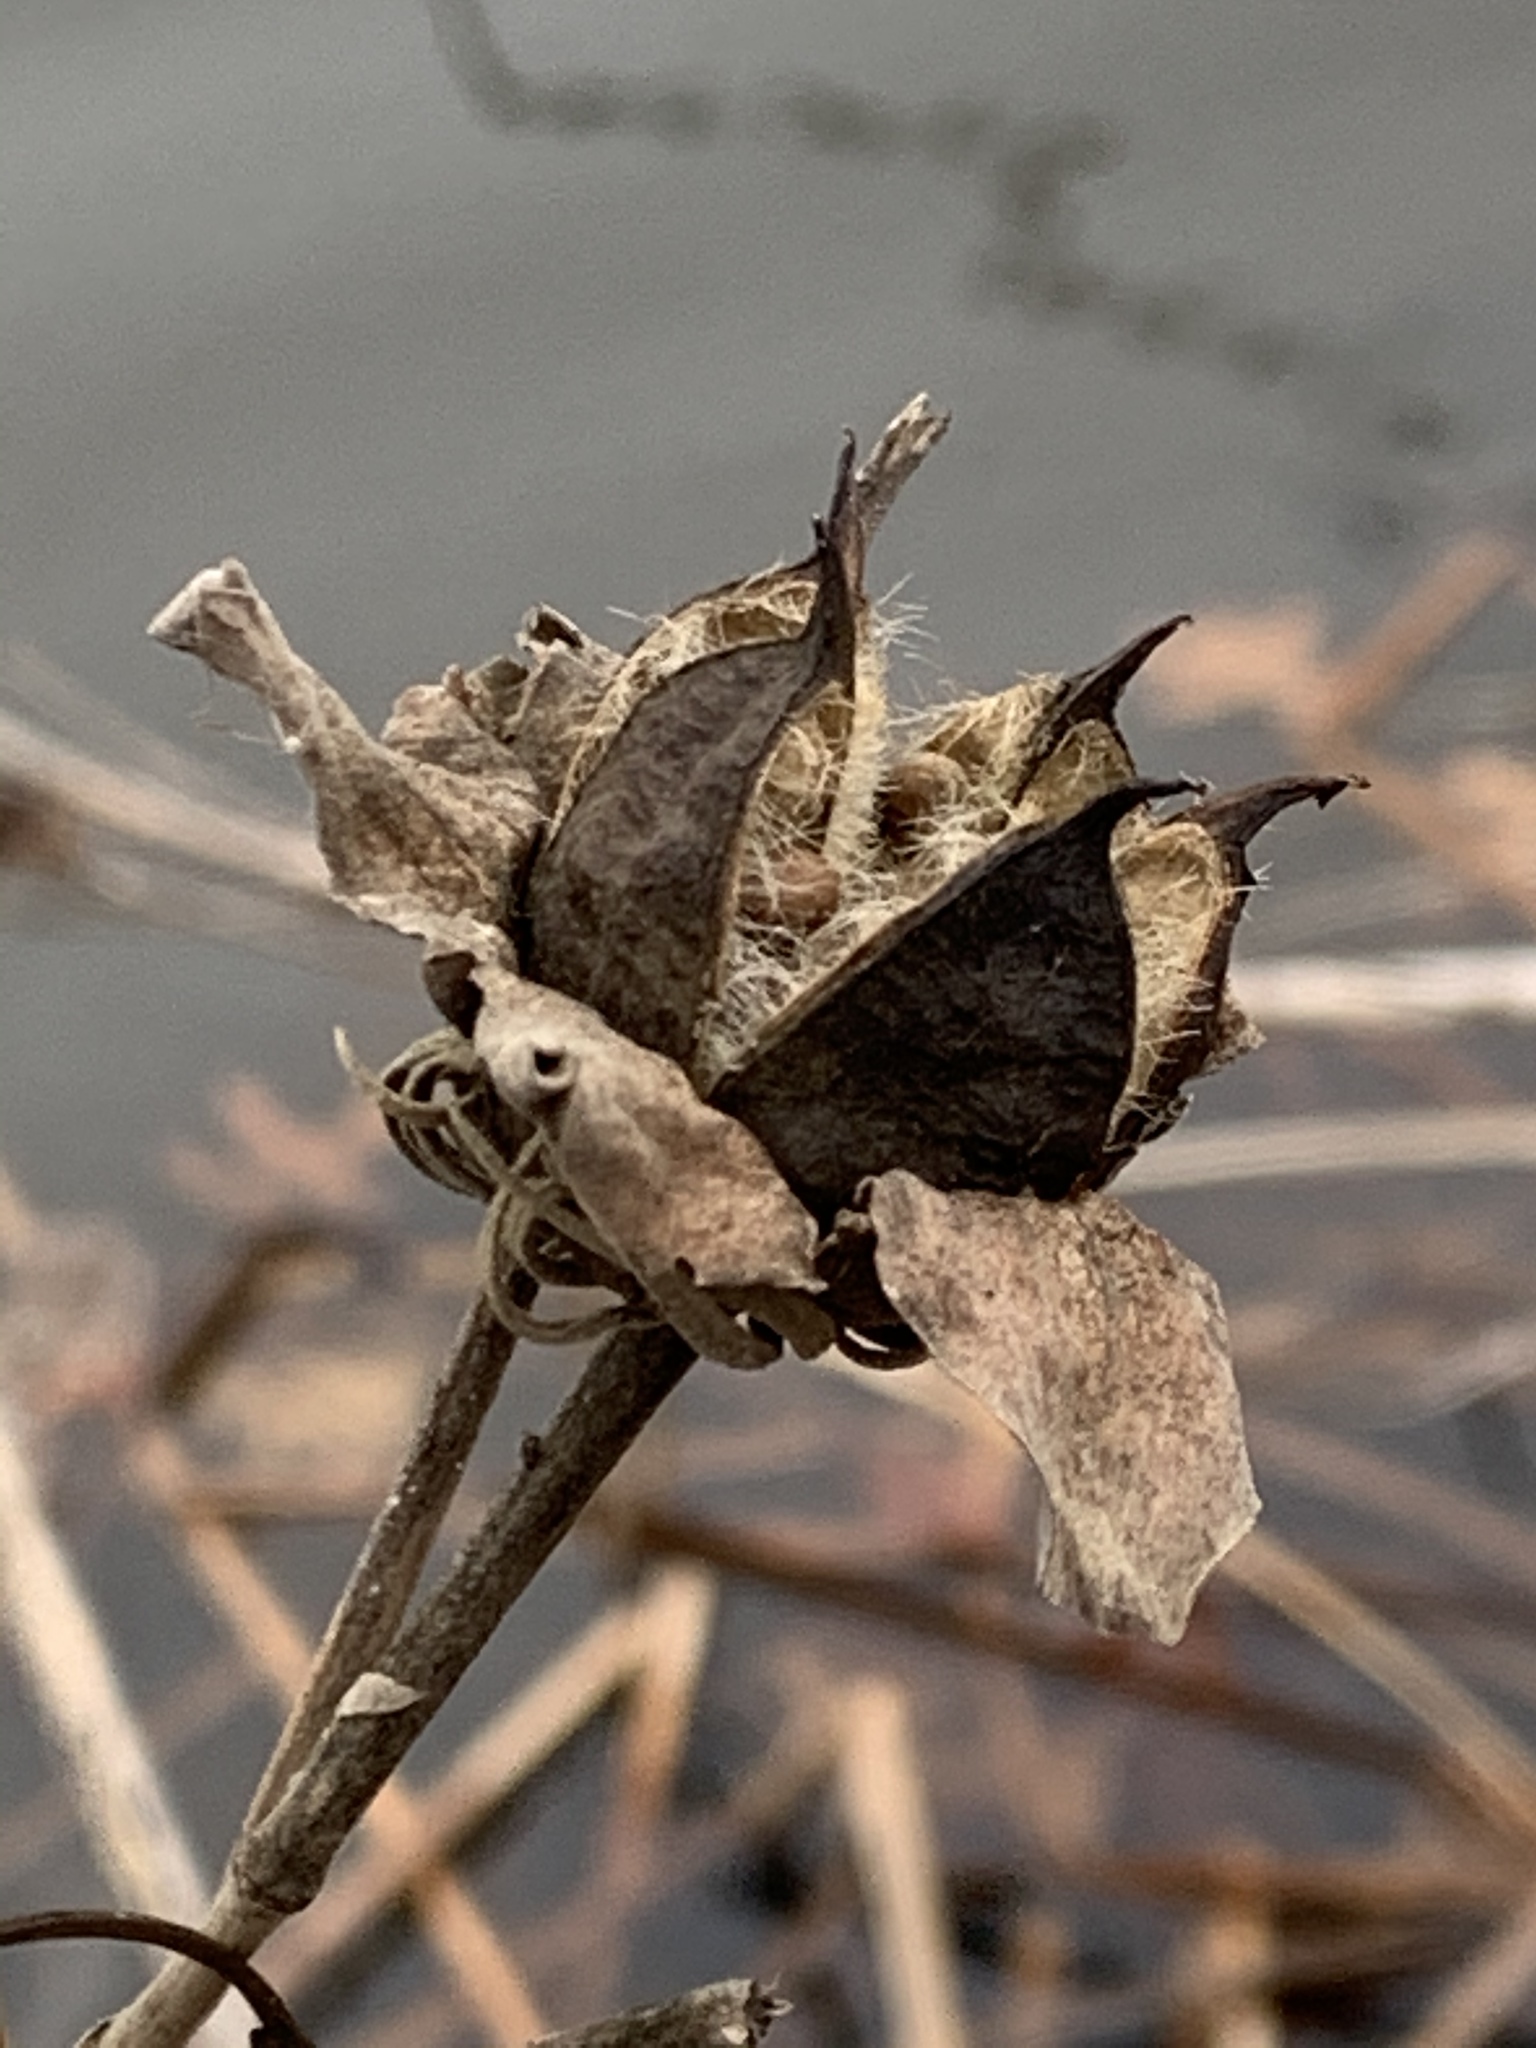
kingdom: Plantae
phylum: Tracheophyta
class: Magnoliopsida
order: Malvales
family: Malvaceae
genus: Hibiscus
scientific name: Hibiscus moscheutos
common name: Common rose-mallow
